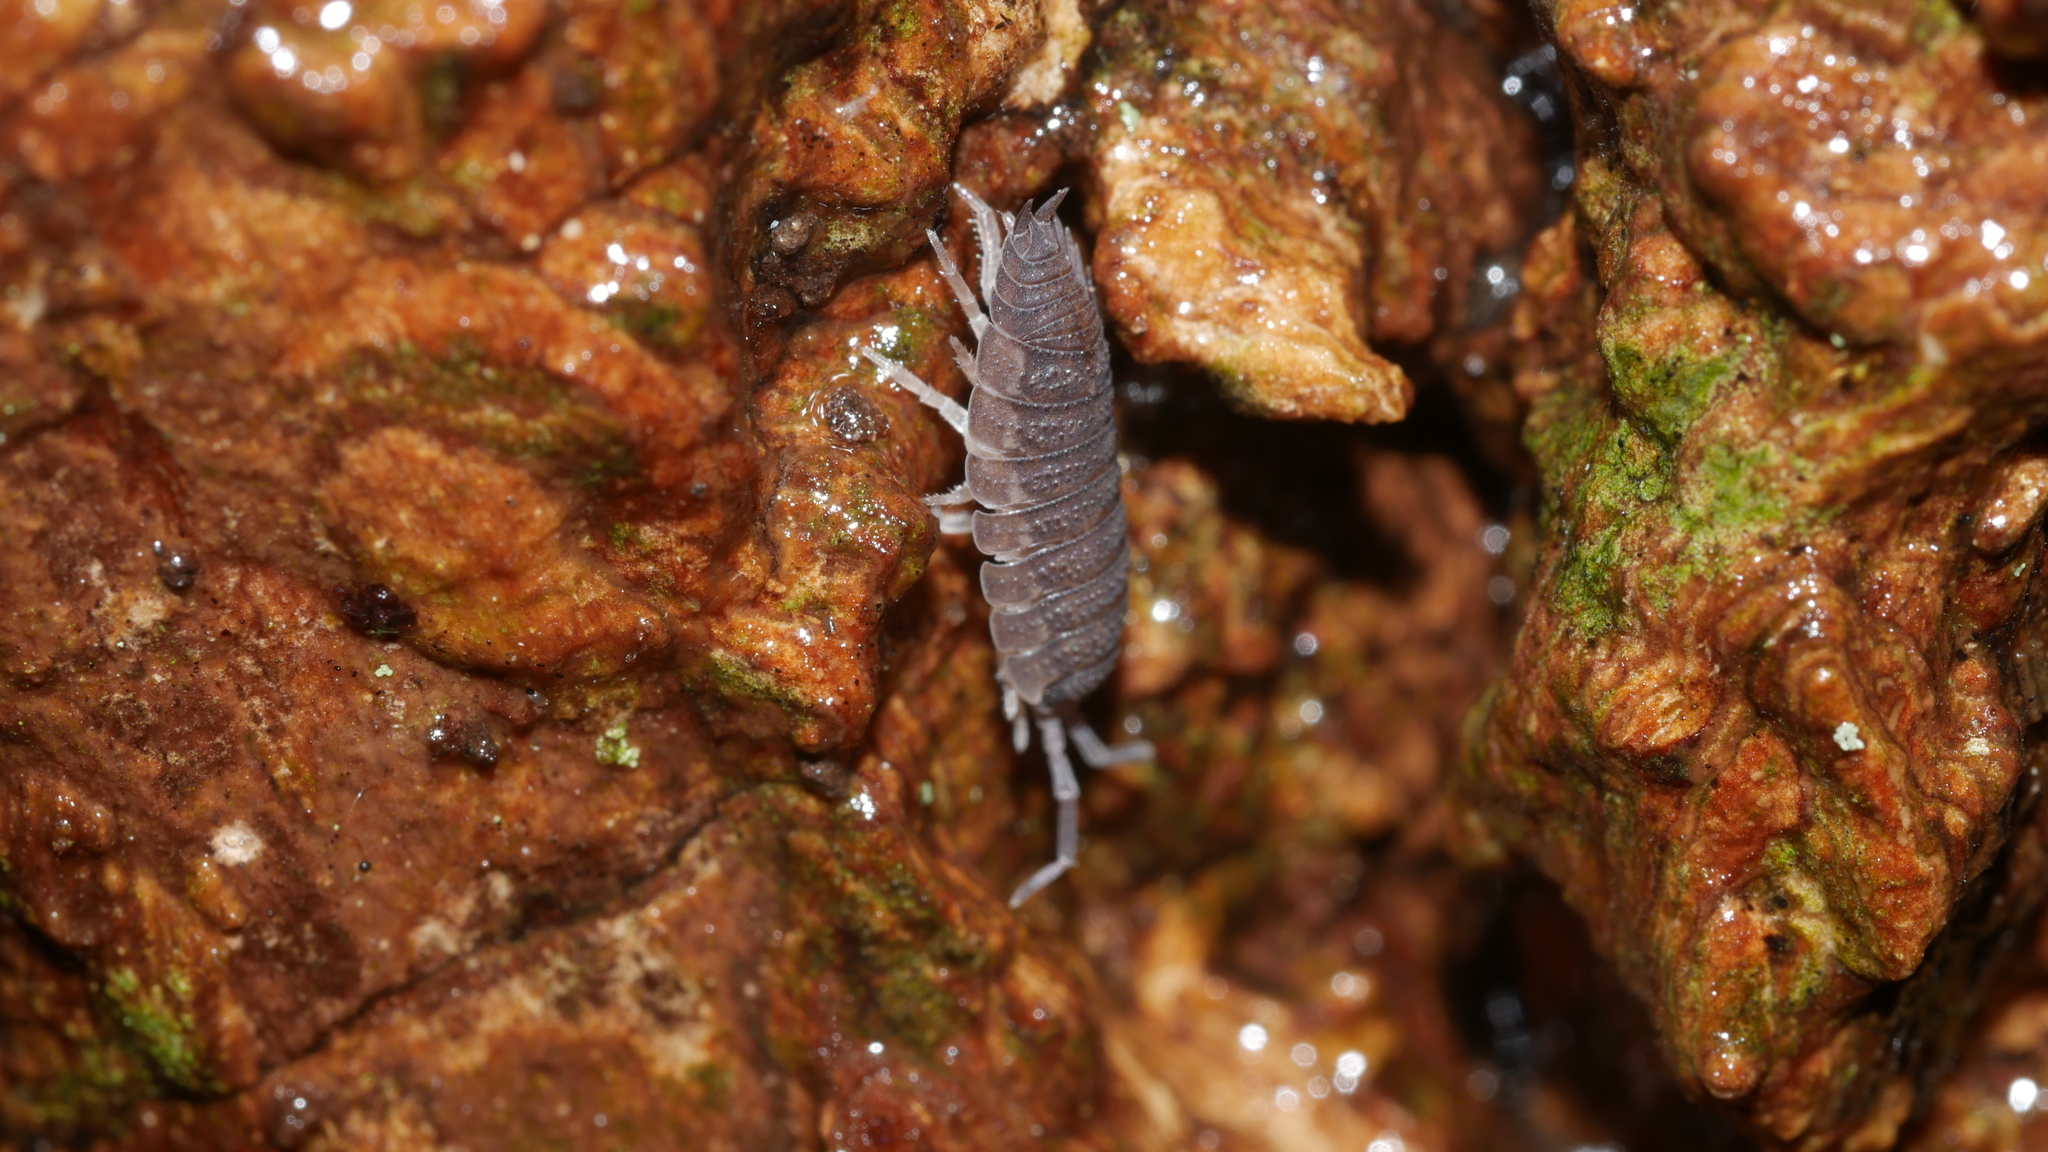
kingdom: Animalia
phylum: Arthropoda
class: Malacostraca
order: Isopoda
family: Porcellionidae
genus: Porcellio
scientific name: Porcellio scaber
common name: Common rough woodlouse
